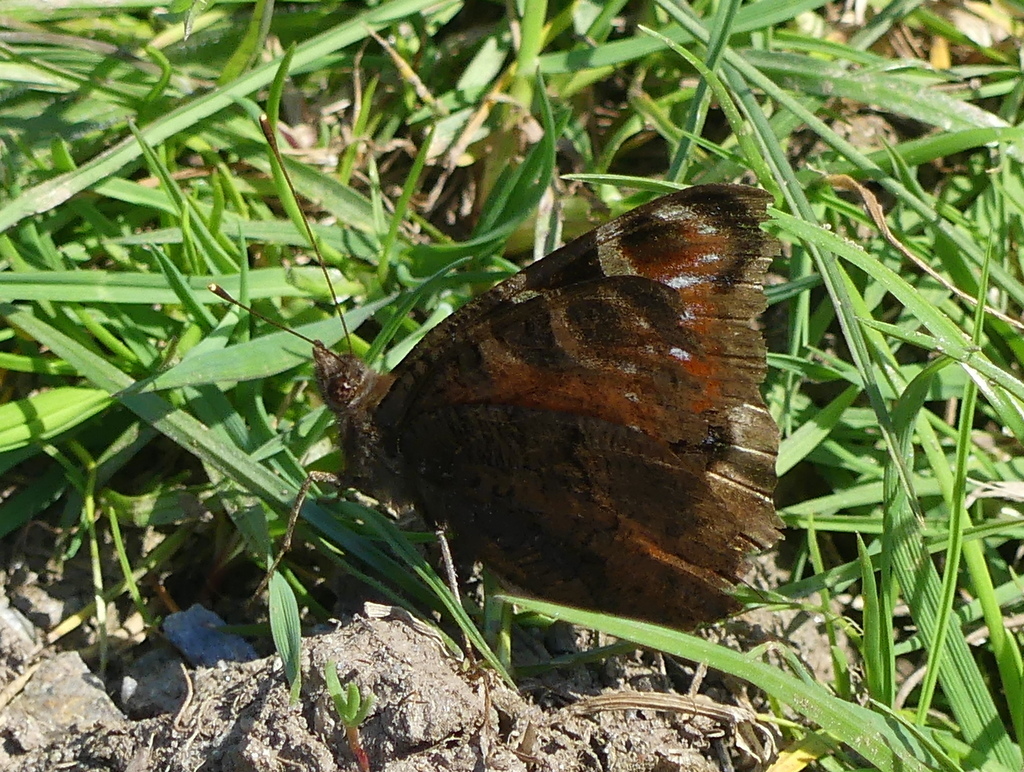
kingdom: Animalia
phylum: Arthropoda
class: Insecta
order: Lepidoptera
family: Nymphalidae
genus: Aglais
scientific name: Aglais io
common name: Peacock
